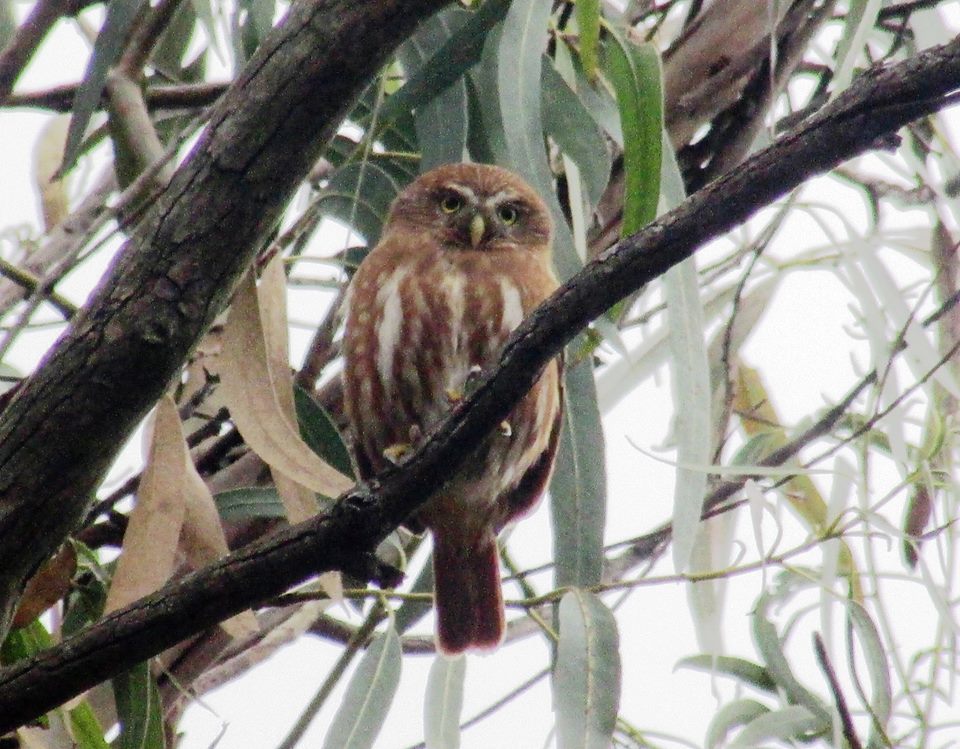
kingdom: Animalia
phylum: Chordata
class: Aves
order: Strigiformes
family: Strigidae
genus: Glaucidium
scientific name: Glaucidium brasilianum
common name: Ferruginous pygmy-owl
